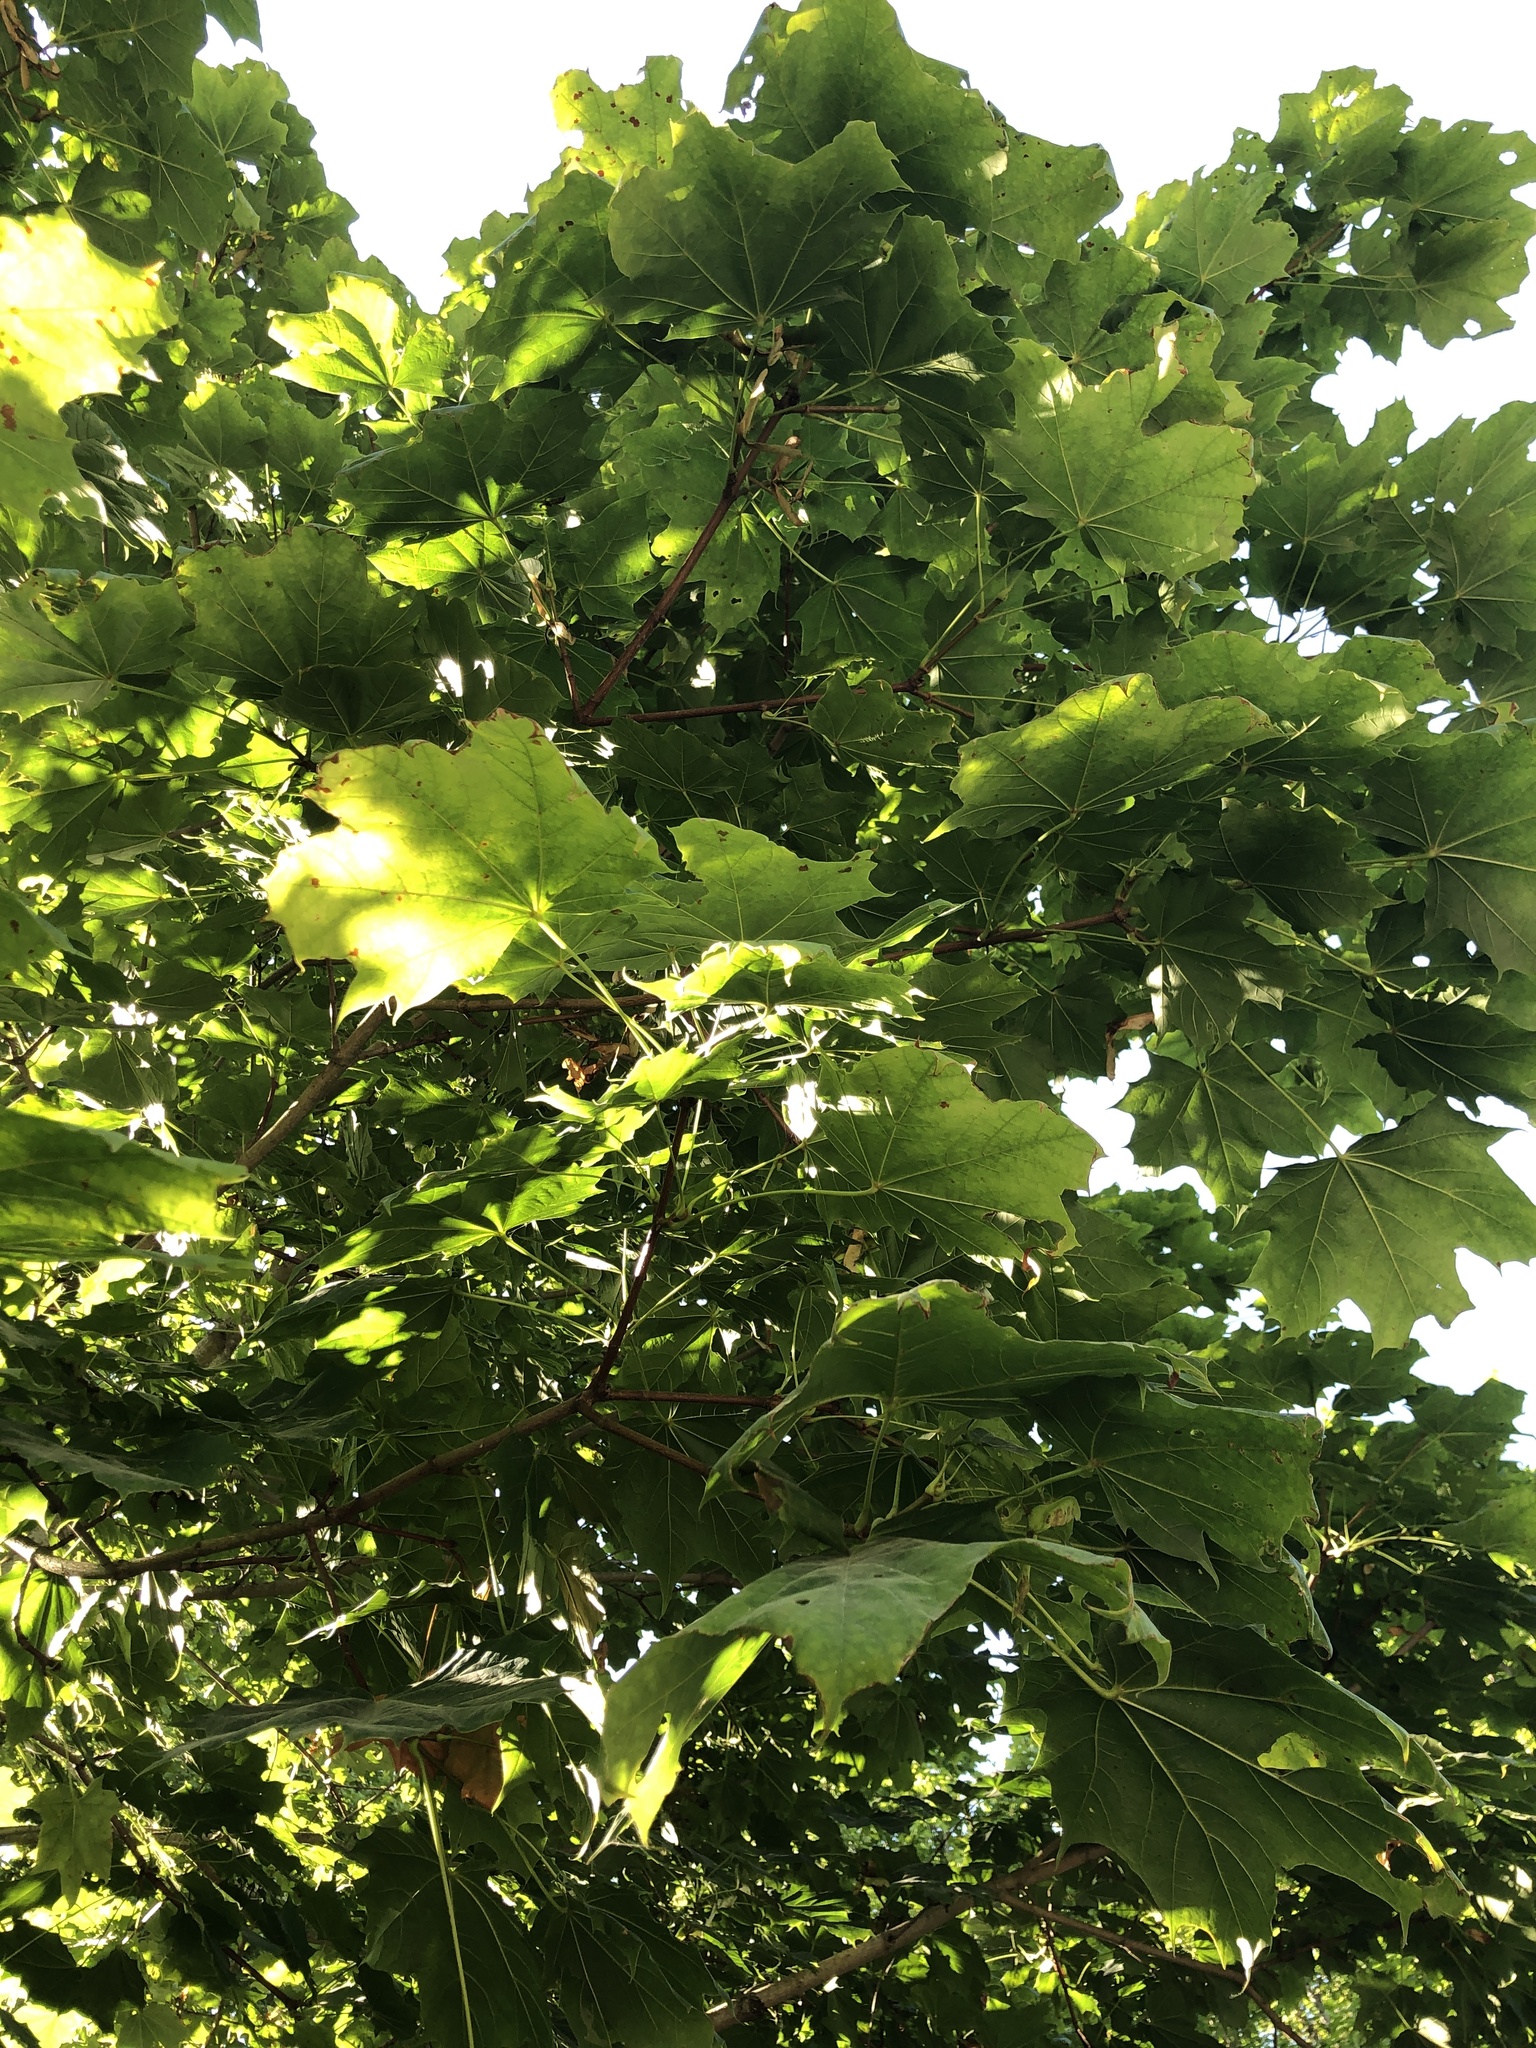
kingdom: Plantae
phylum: Tracheophyta
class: Magnoliopsida
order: Sapindales
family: Sapindaceae
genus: Acer
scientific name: Acer platanoides
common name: Norway maple
